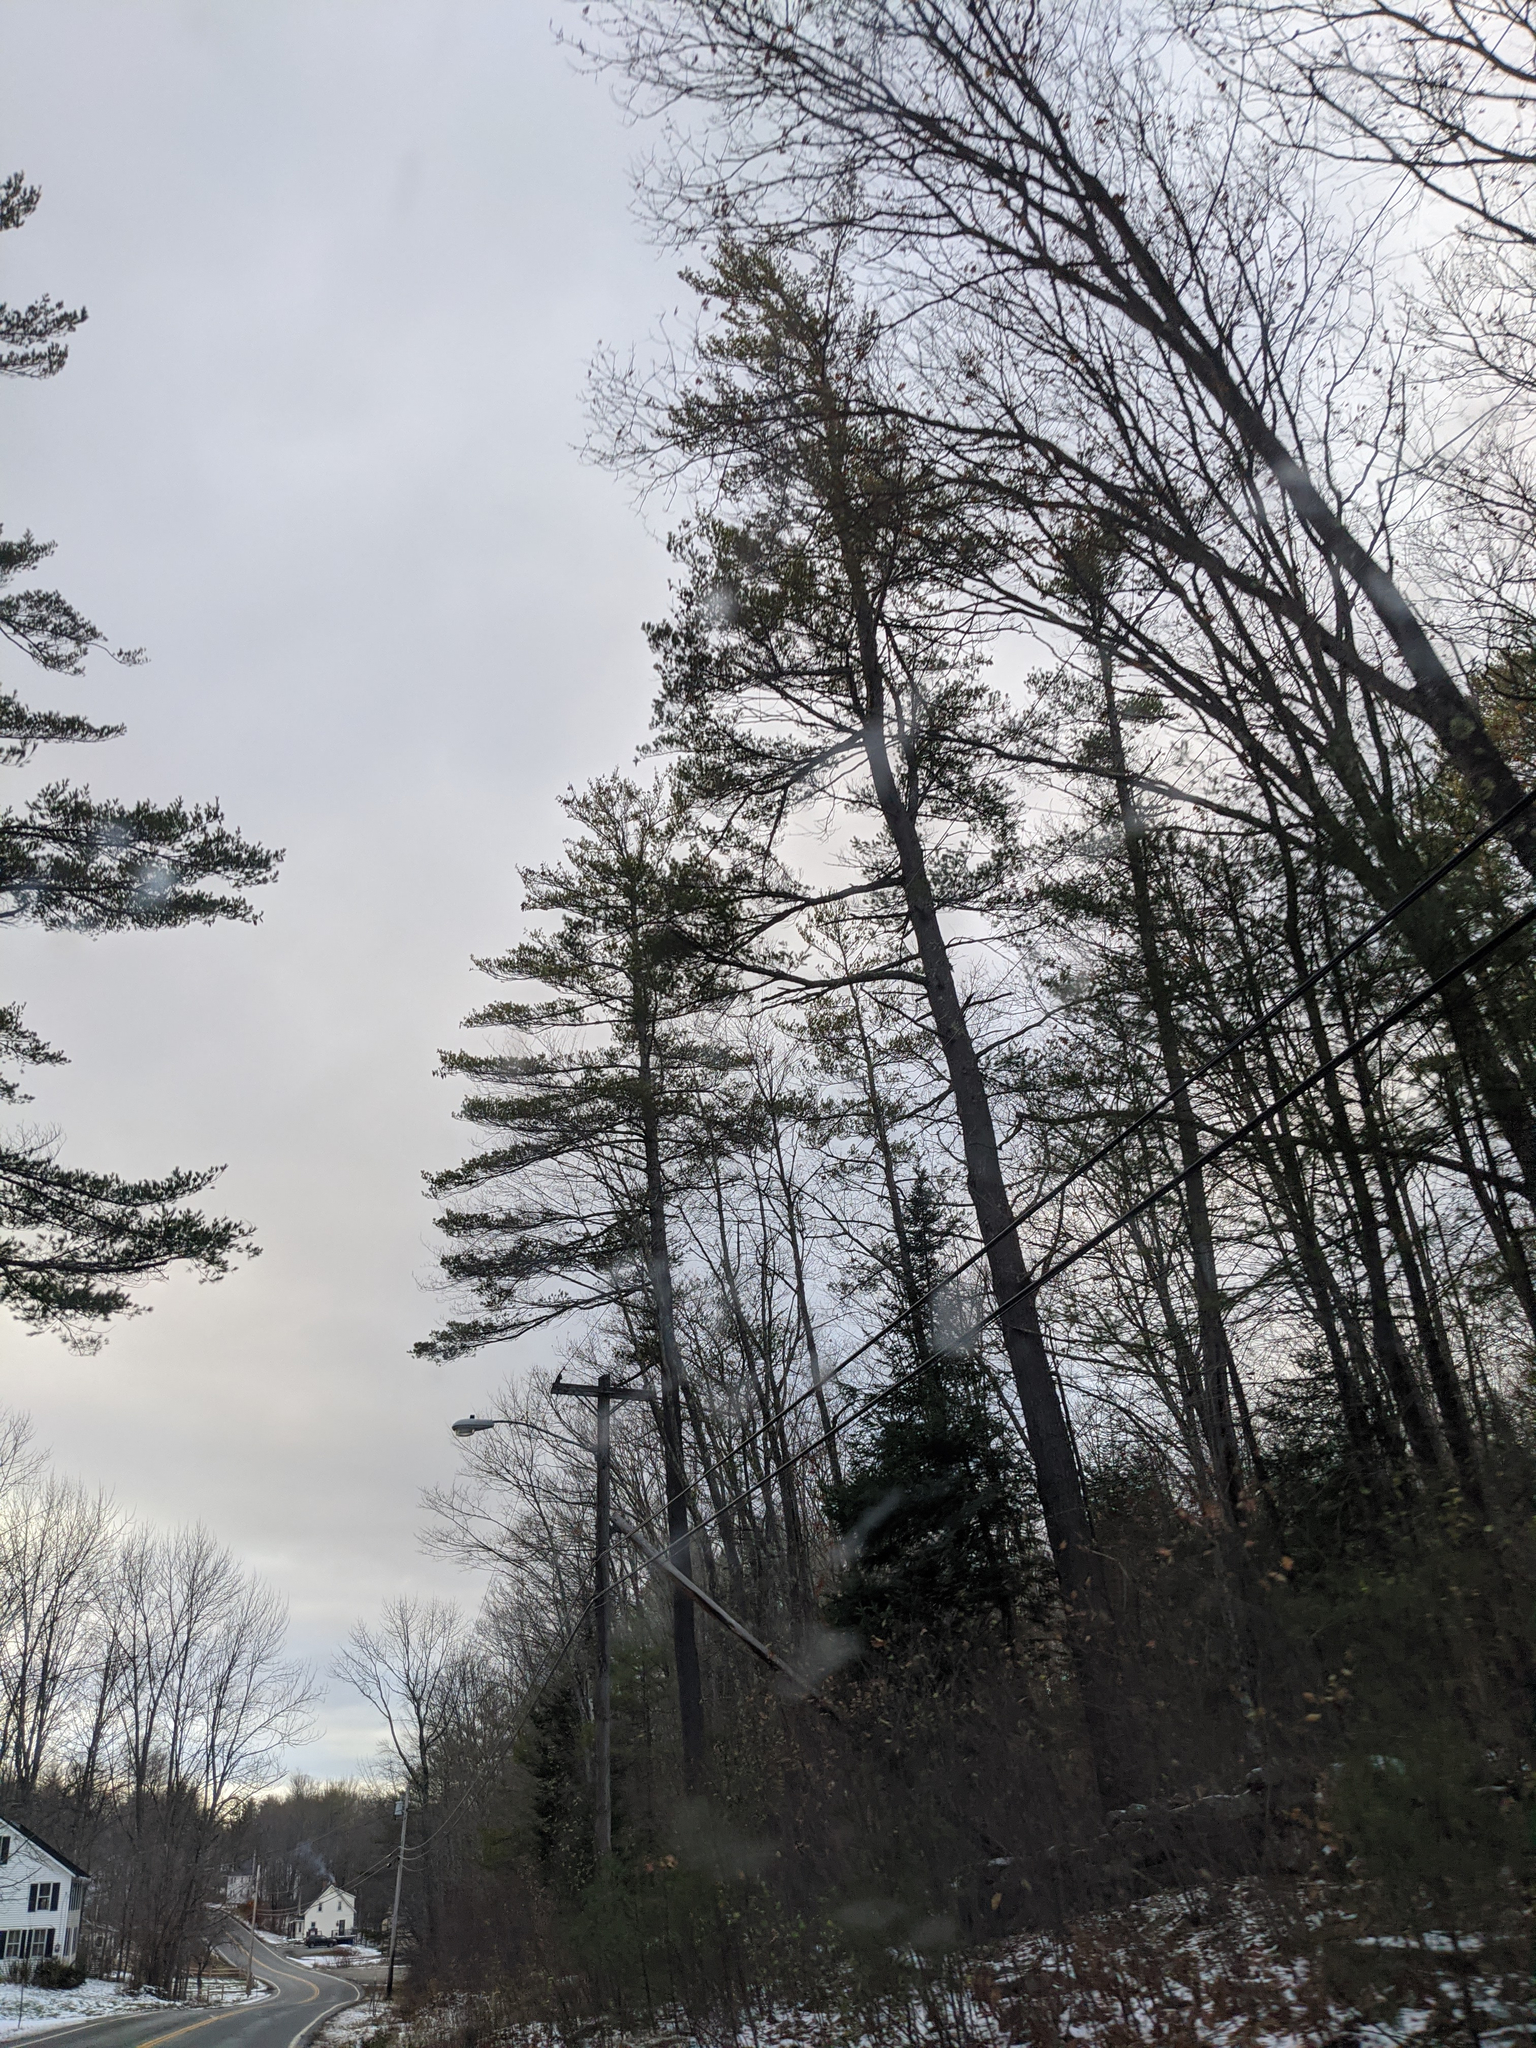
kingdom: Plantae
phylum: Tracheophyta
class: Pinopsida
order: Pinales
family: Pinaceae
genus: Pinus
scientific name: Pinus strobus
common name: Weymouth pine
